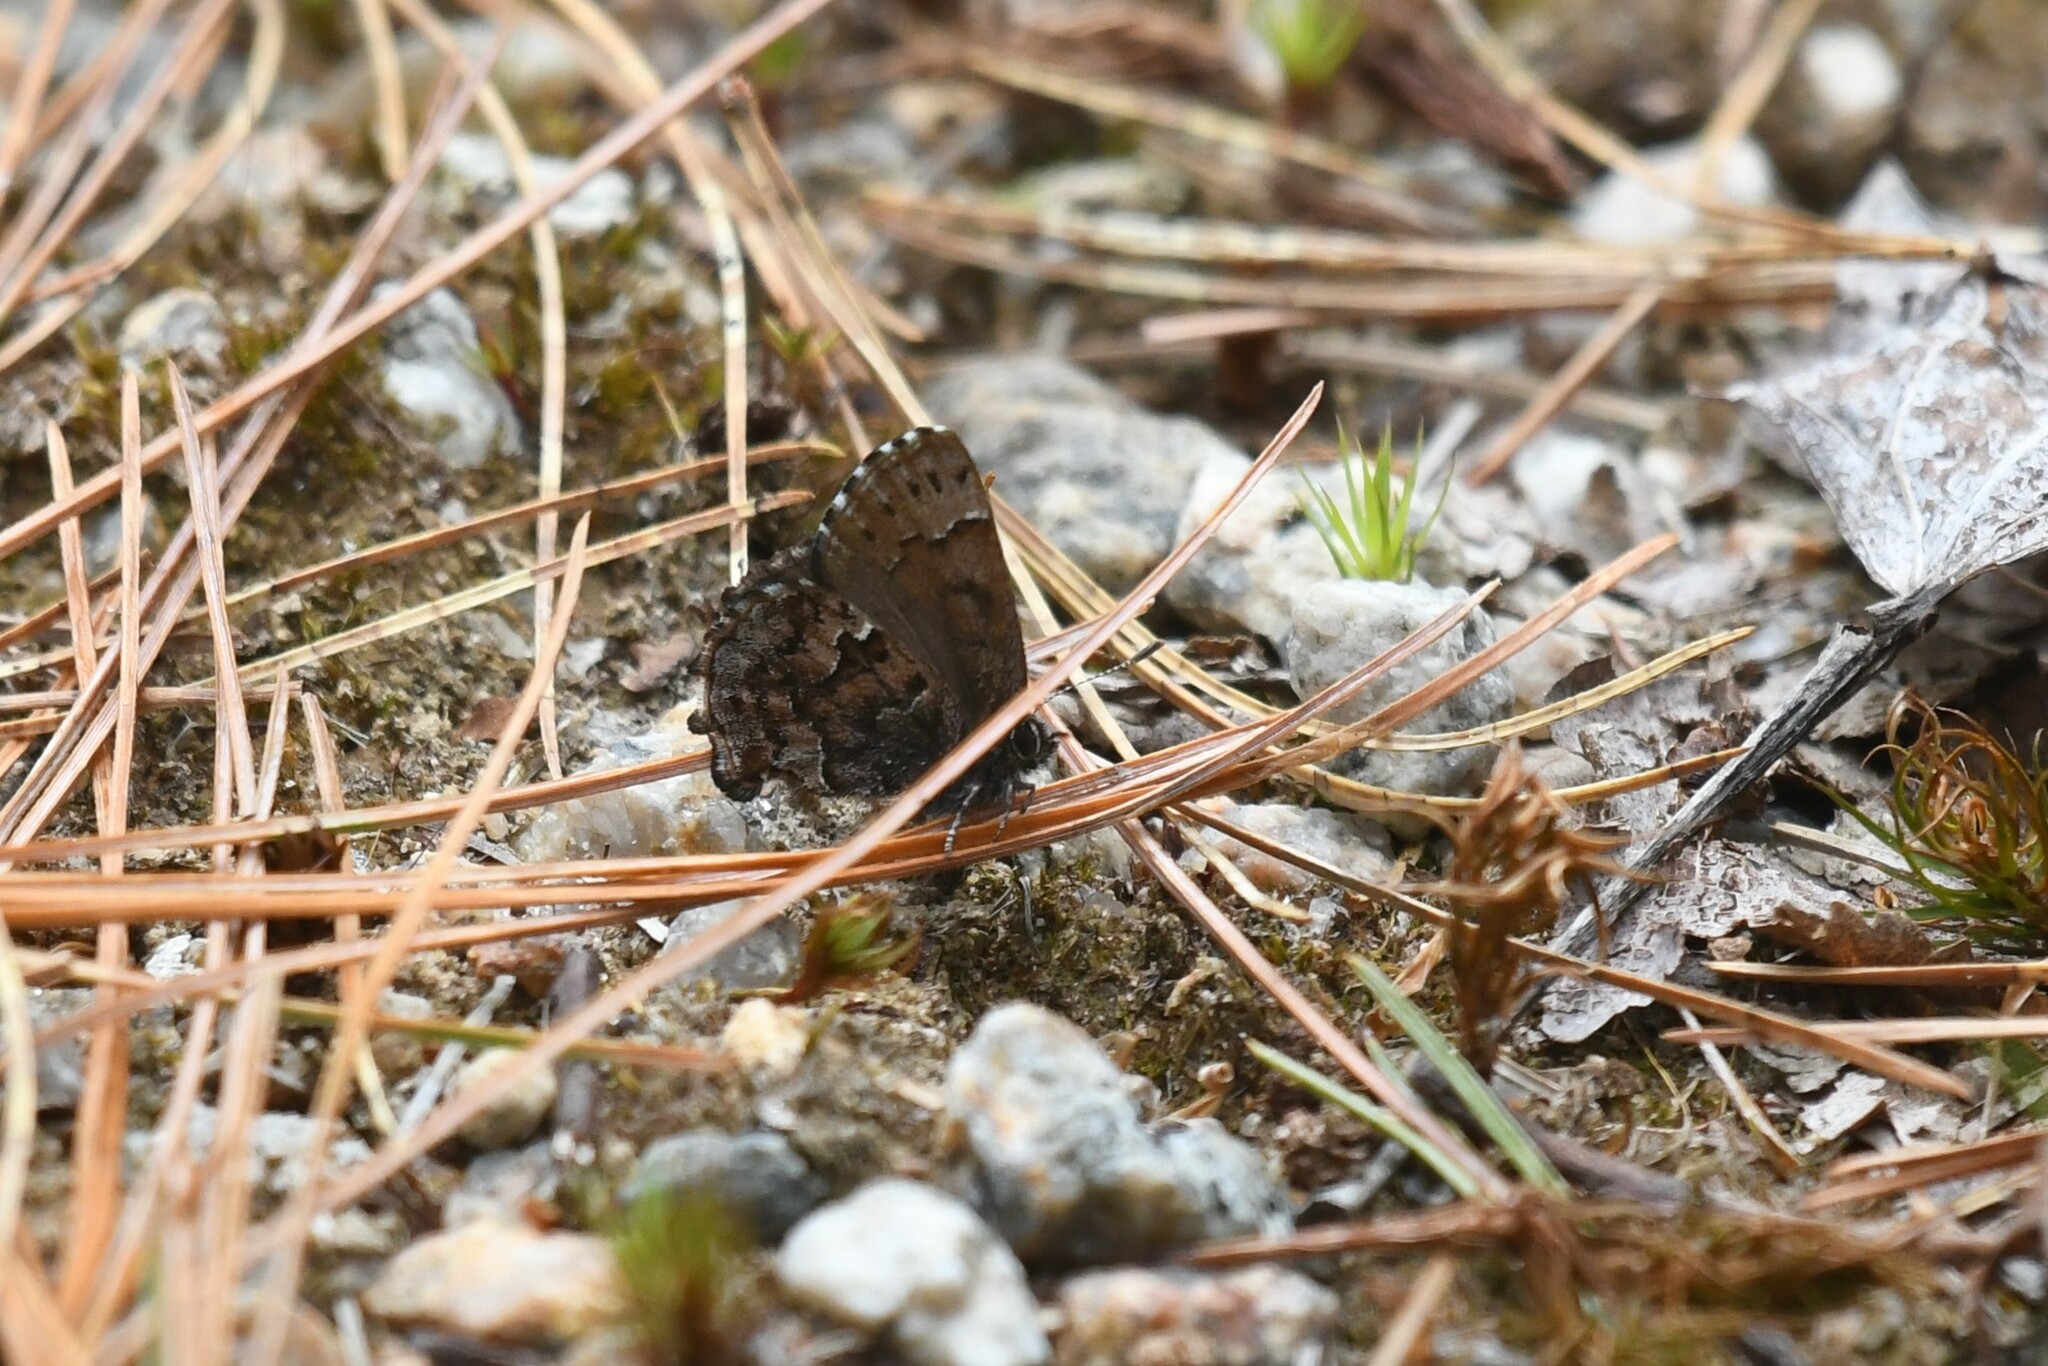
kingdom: Animalia
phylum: Arthropoda
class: Insecta
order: Lepidoptera
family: Lycaenidae
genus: Incisalia
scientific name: Incisalia lanoraieensis
